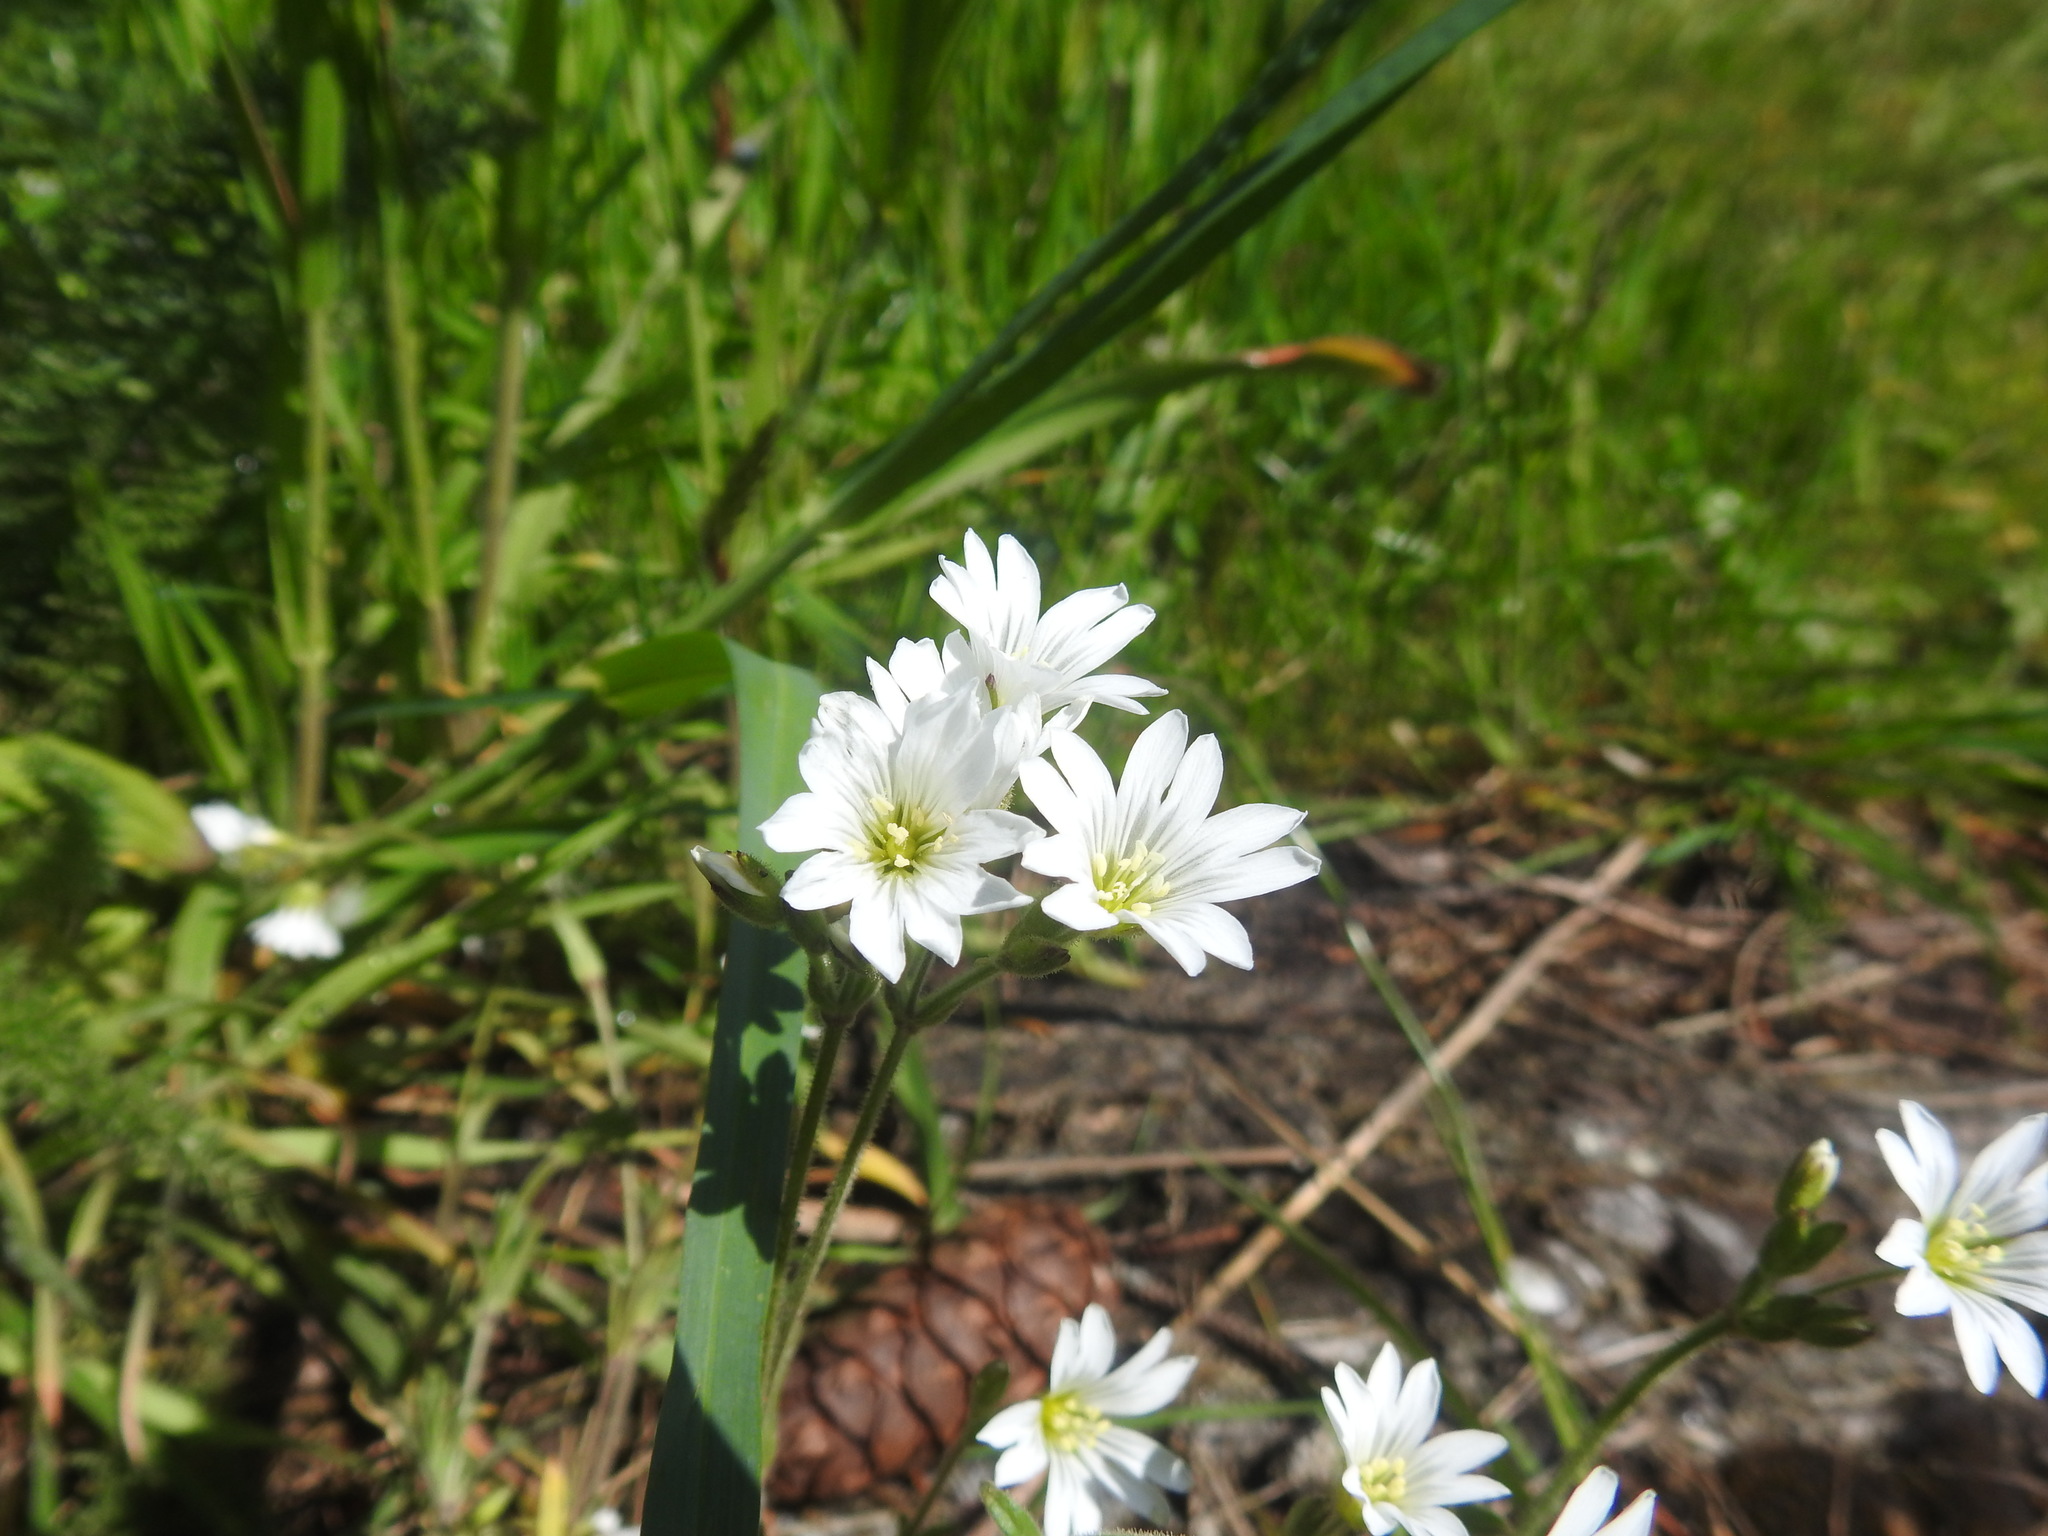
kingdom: Plantae
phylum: Tracheophyta
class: Magnoliopsida
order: Caryophyllales
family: Caryophyllaceae
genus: Cerastium
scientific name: Cerastium arvense
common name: Field mouse-ear
